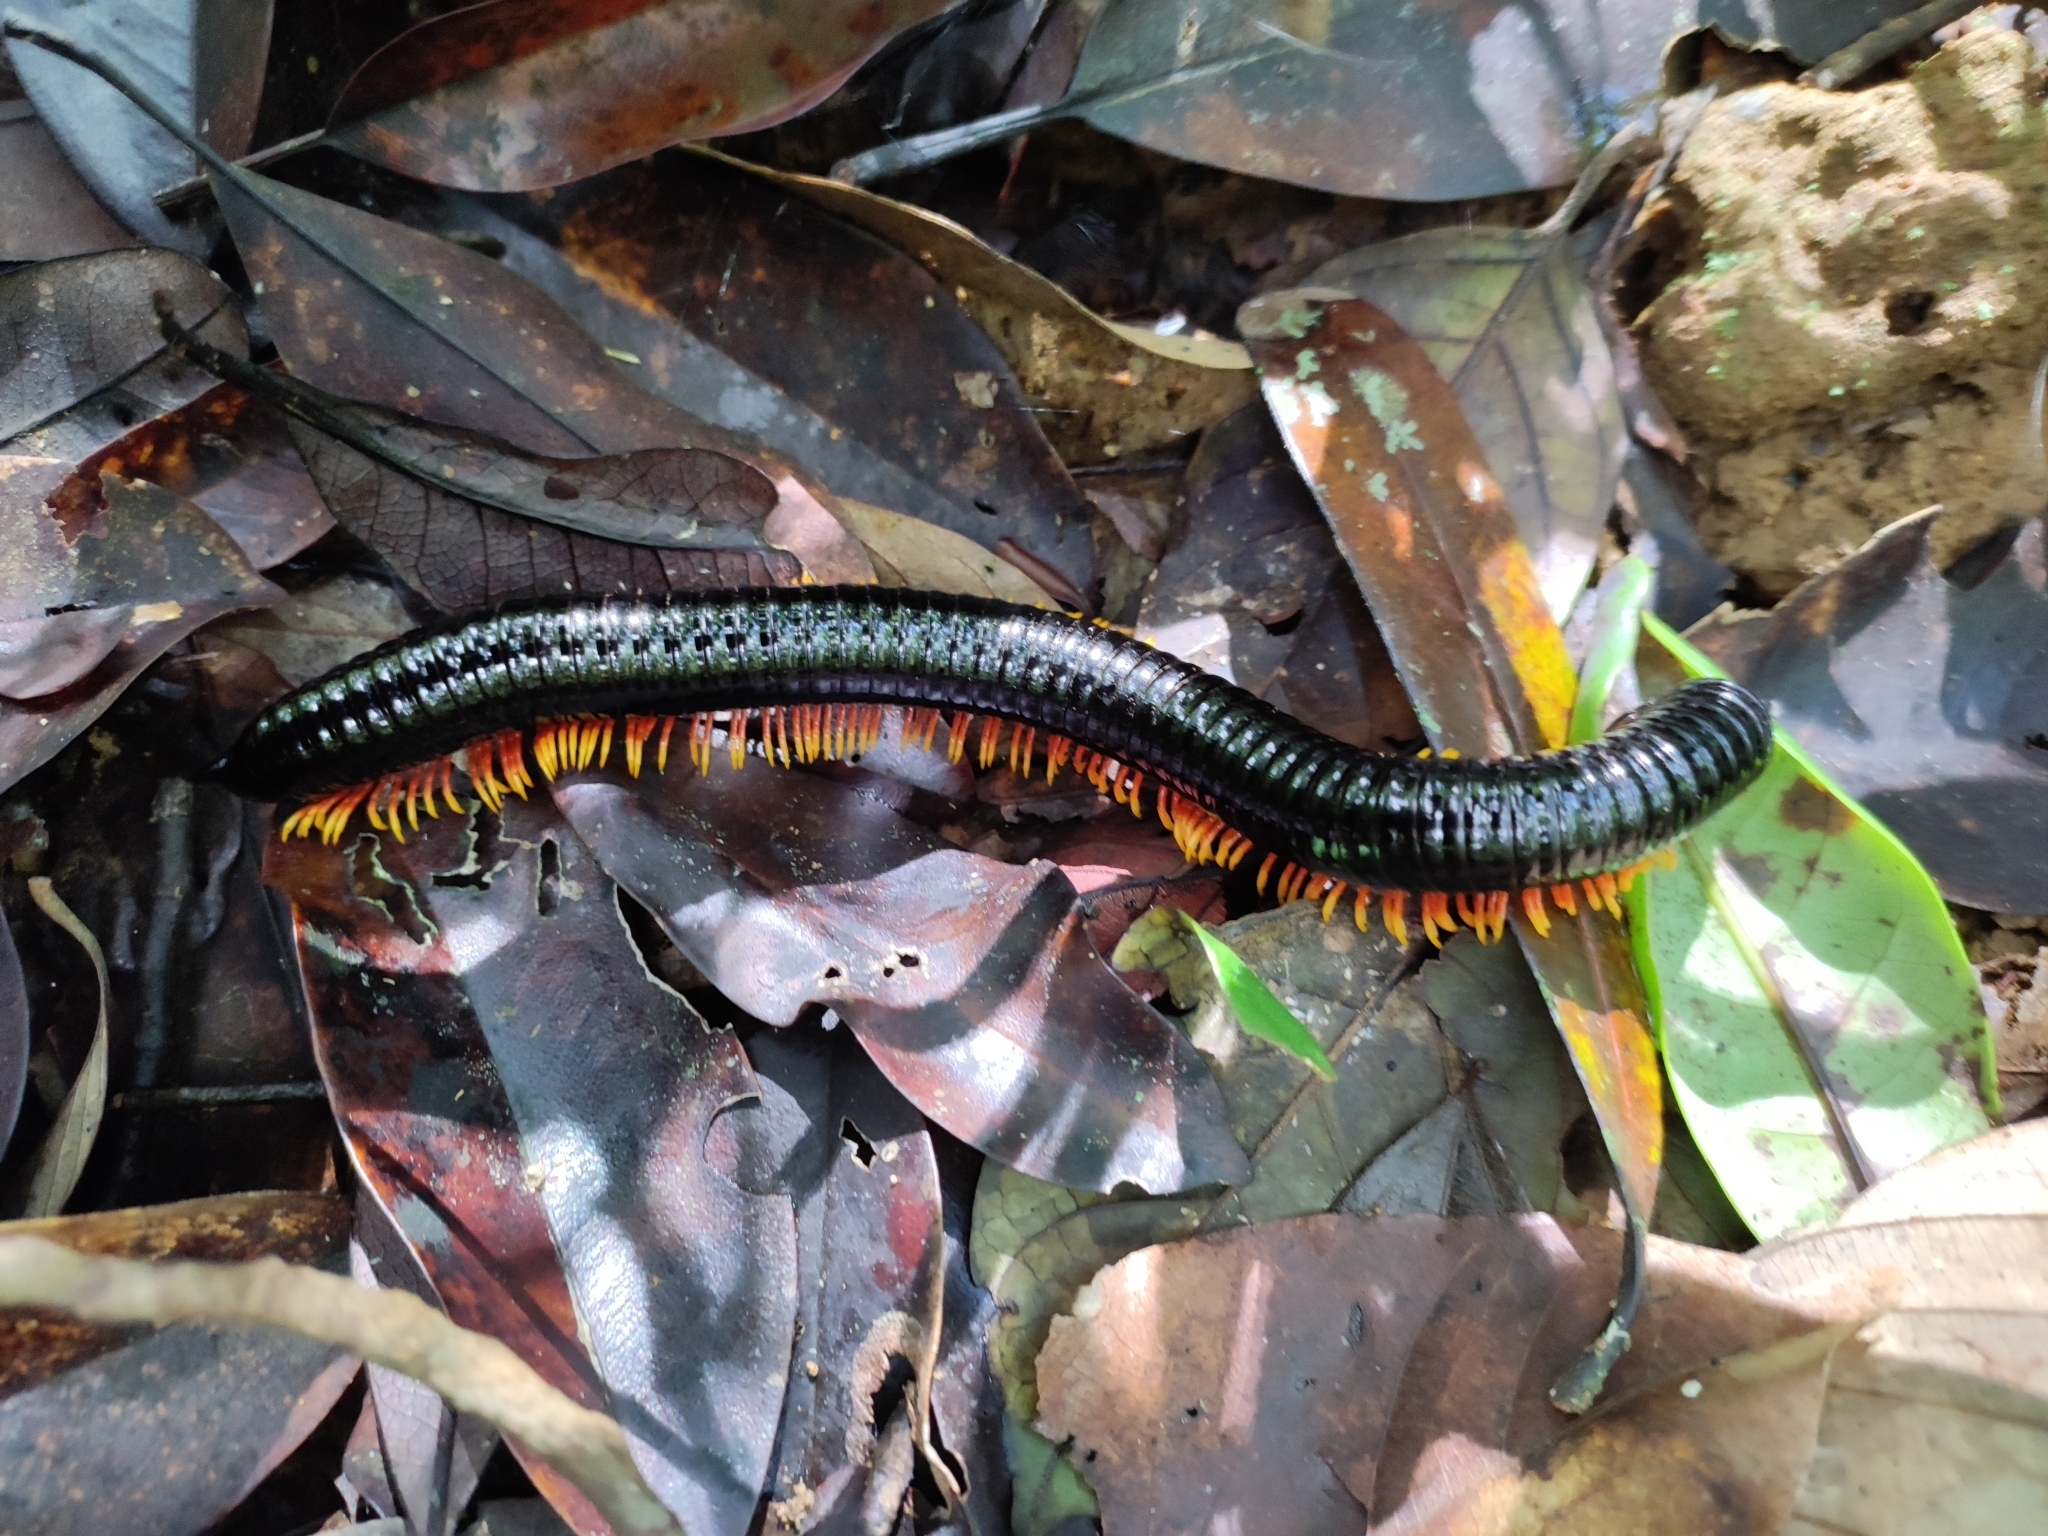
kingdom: Animalia
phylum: Arthropoda
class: Diplopoda
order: Spirostreptida
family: Harpagophoridae
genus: Alienostreptus
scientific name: Alienostreptus bicoloripes
